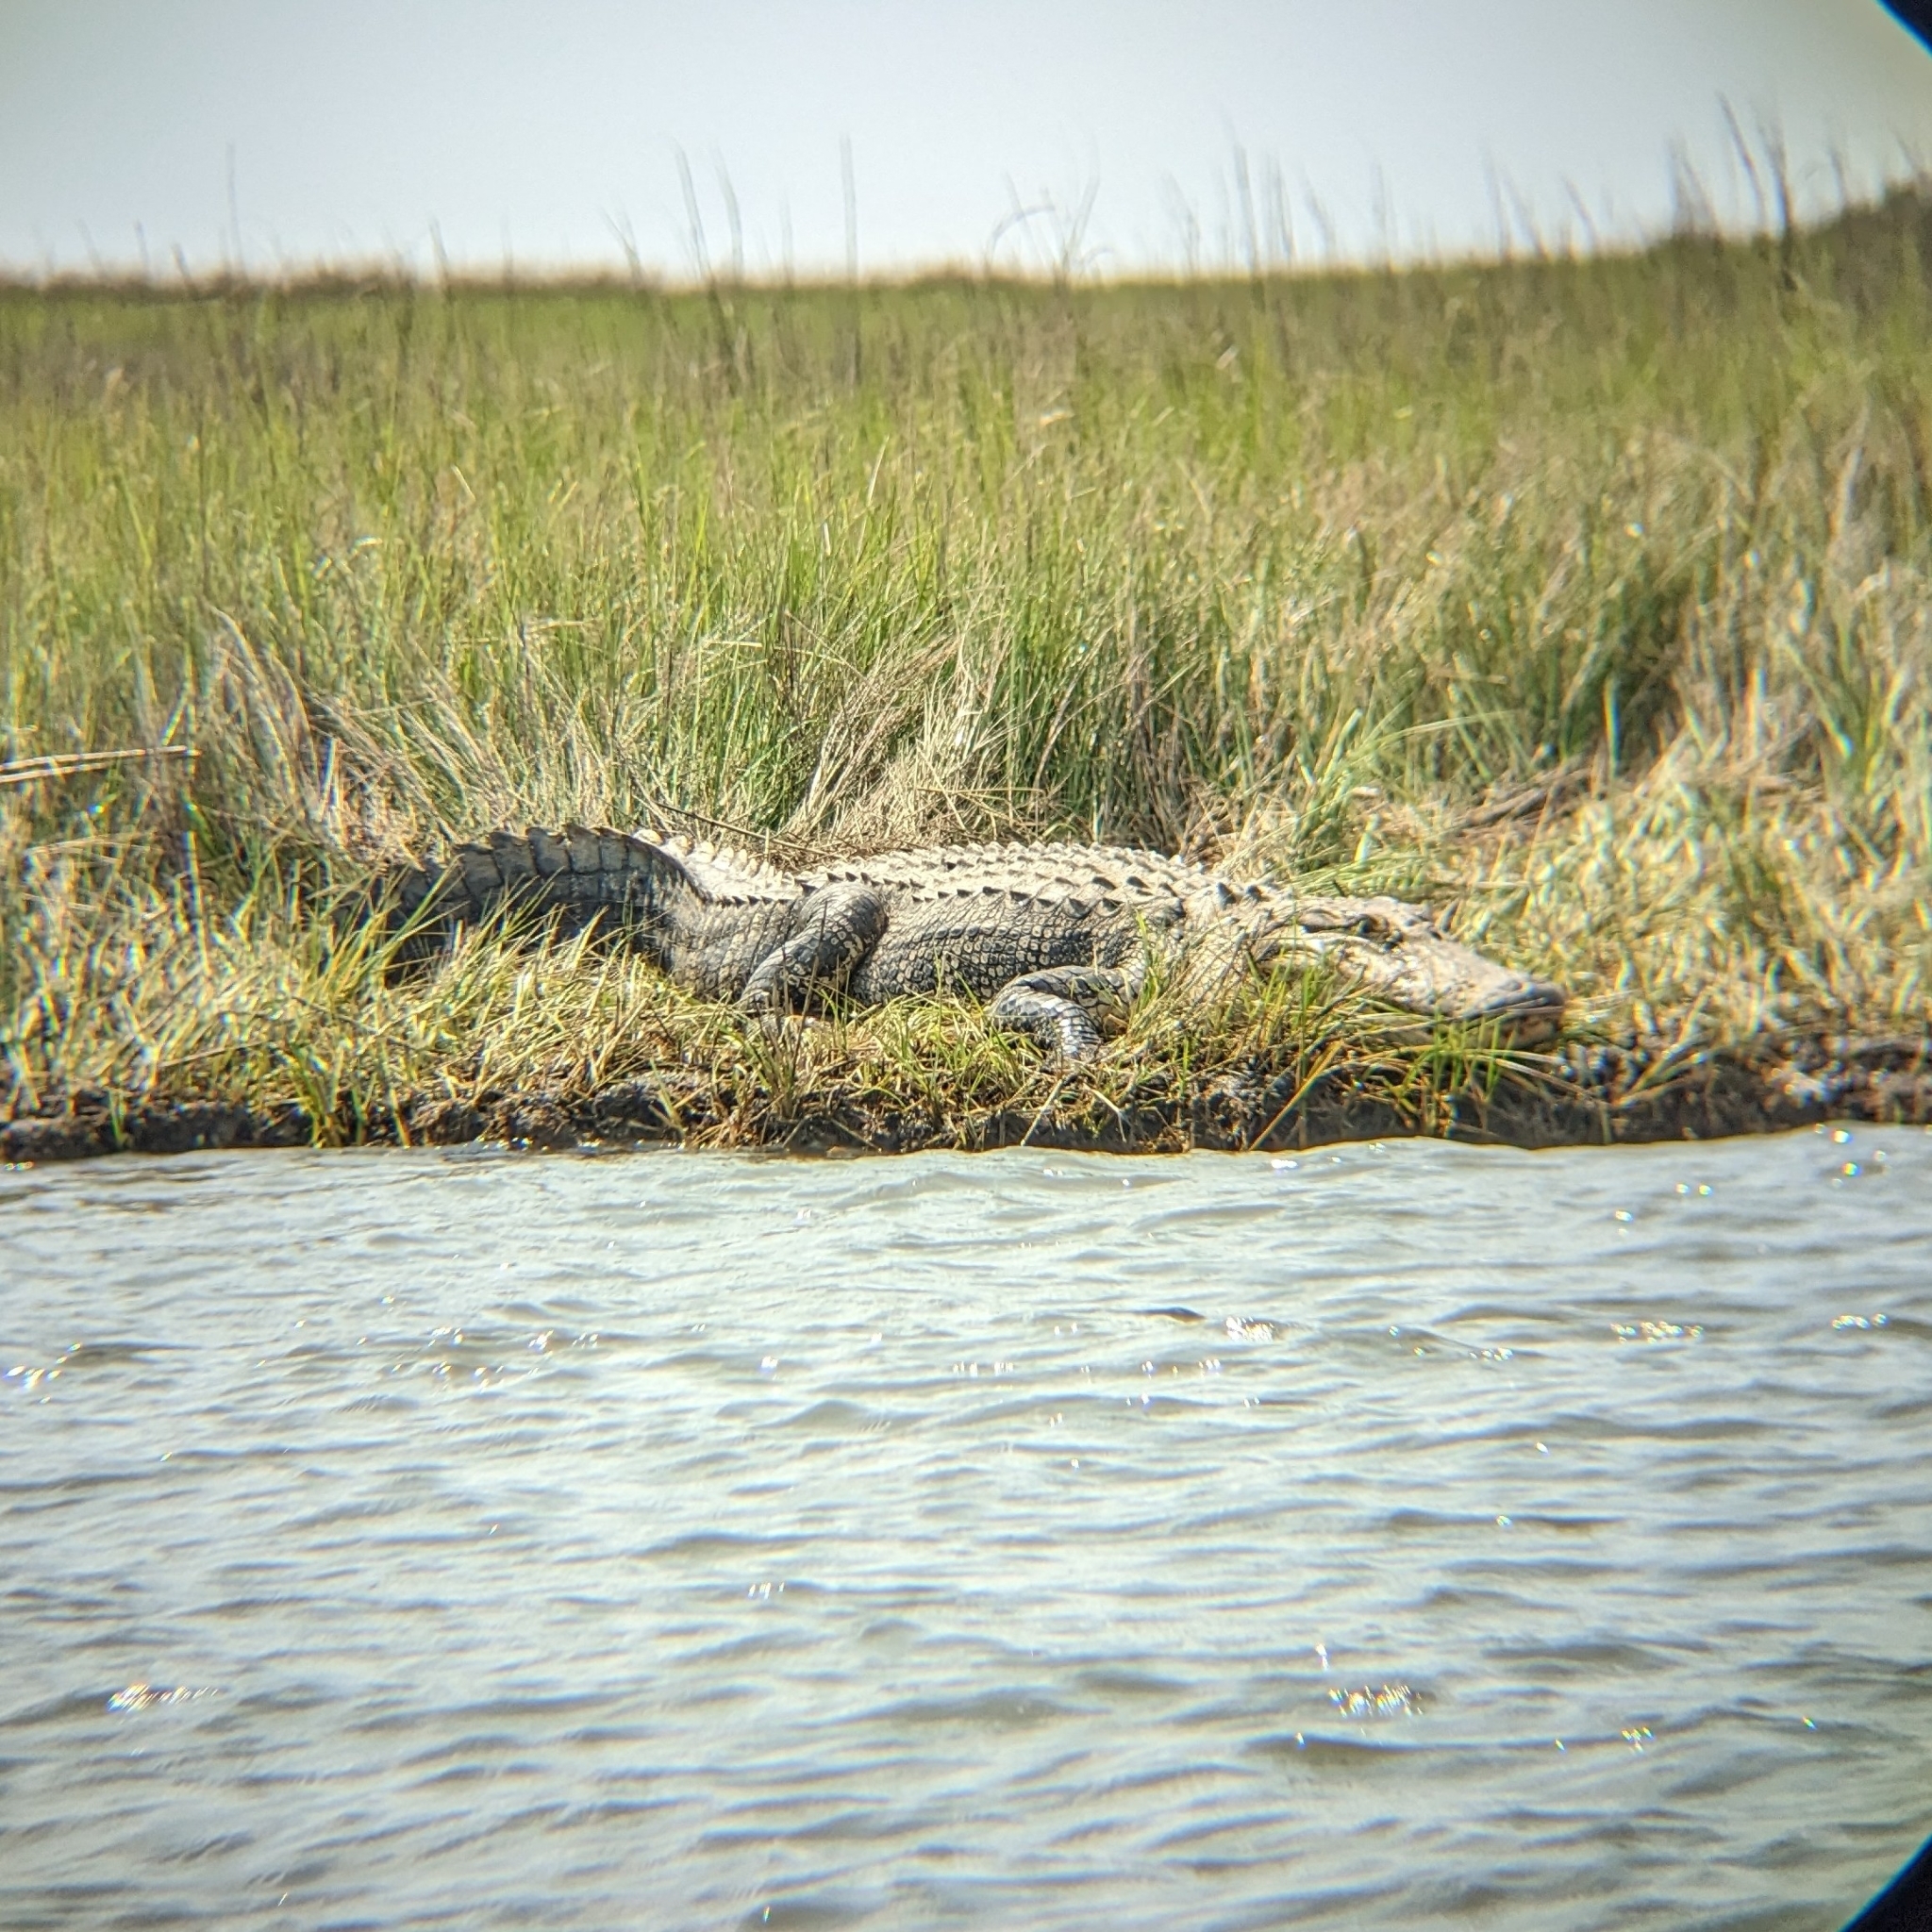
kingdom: Animalia
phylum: Chordata
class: Crocodylia
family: Alligatoridae
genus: Alligator
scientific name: Alligator mississippiensis
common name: American alligator
